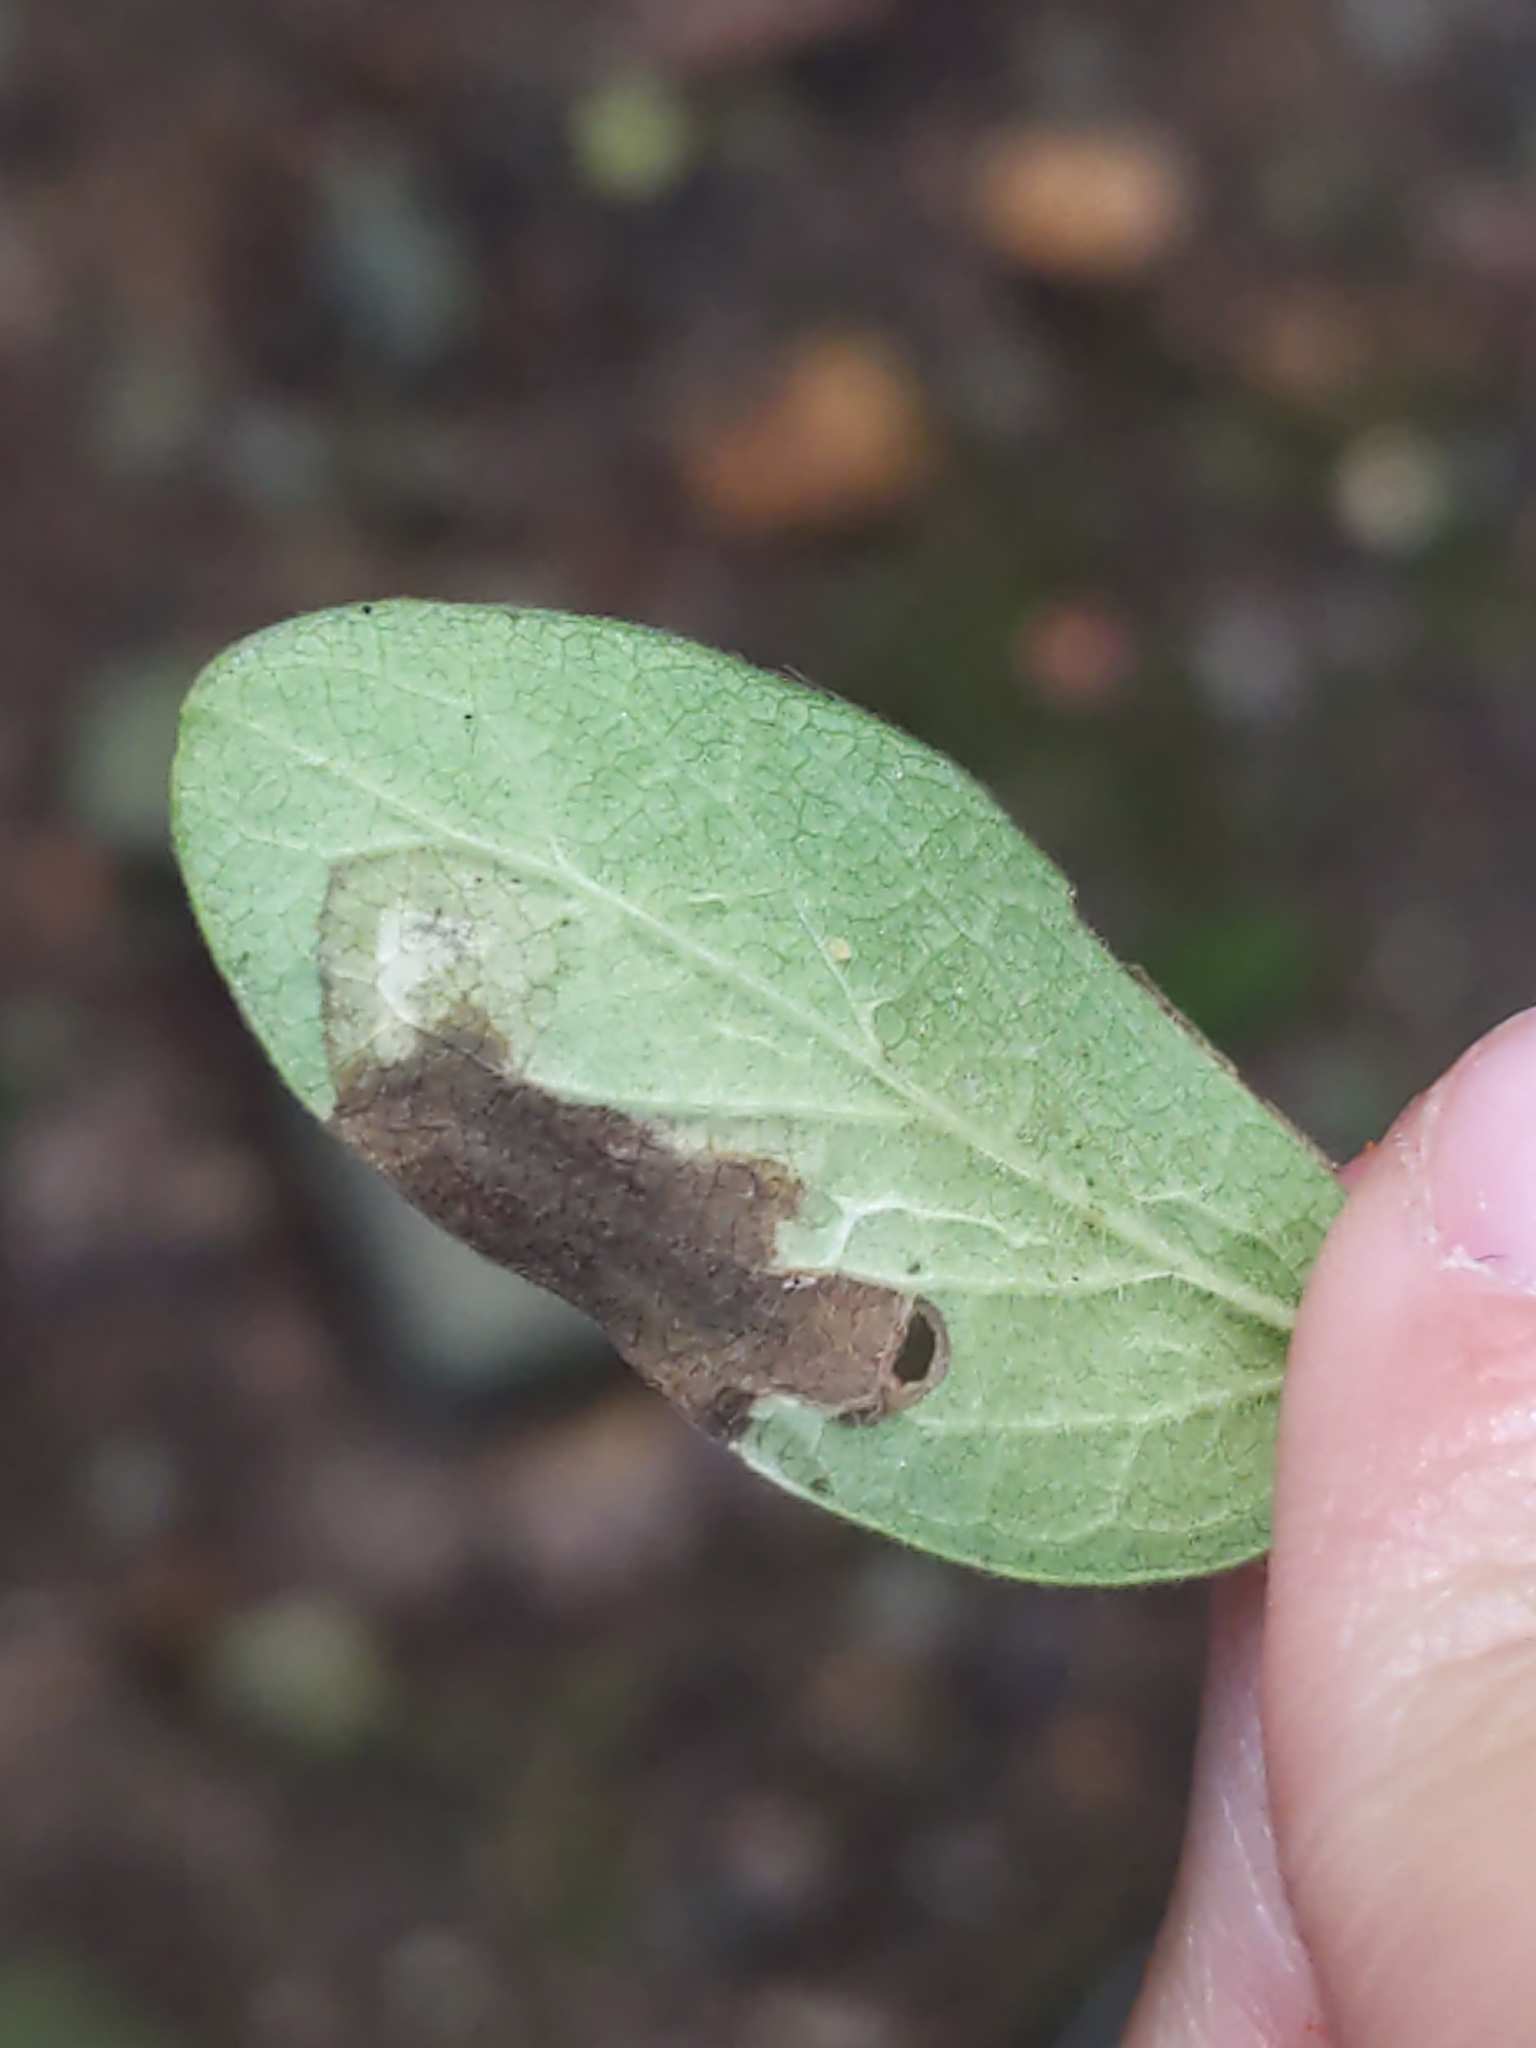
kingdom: Animalia
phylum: Arthropoda
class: Insecta
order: Diptera
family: Agromyzidae
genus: Aulagromyza
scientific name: Aulagromyza
